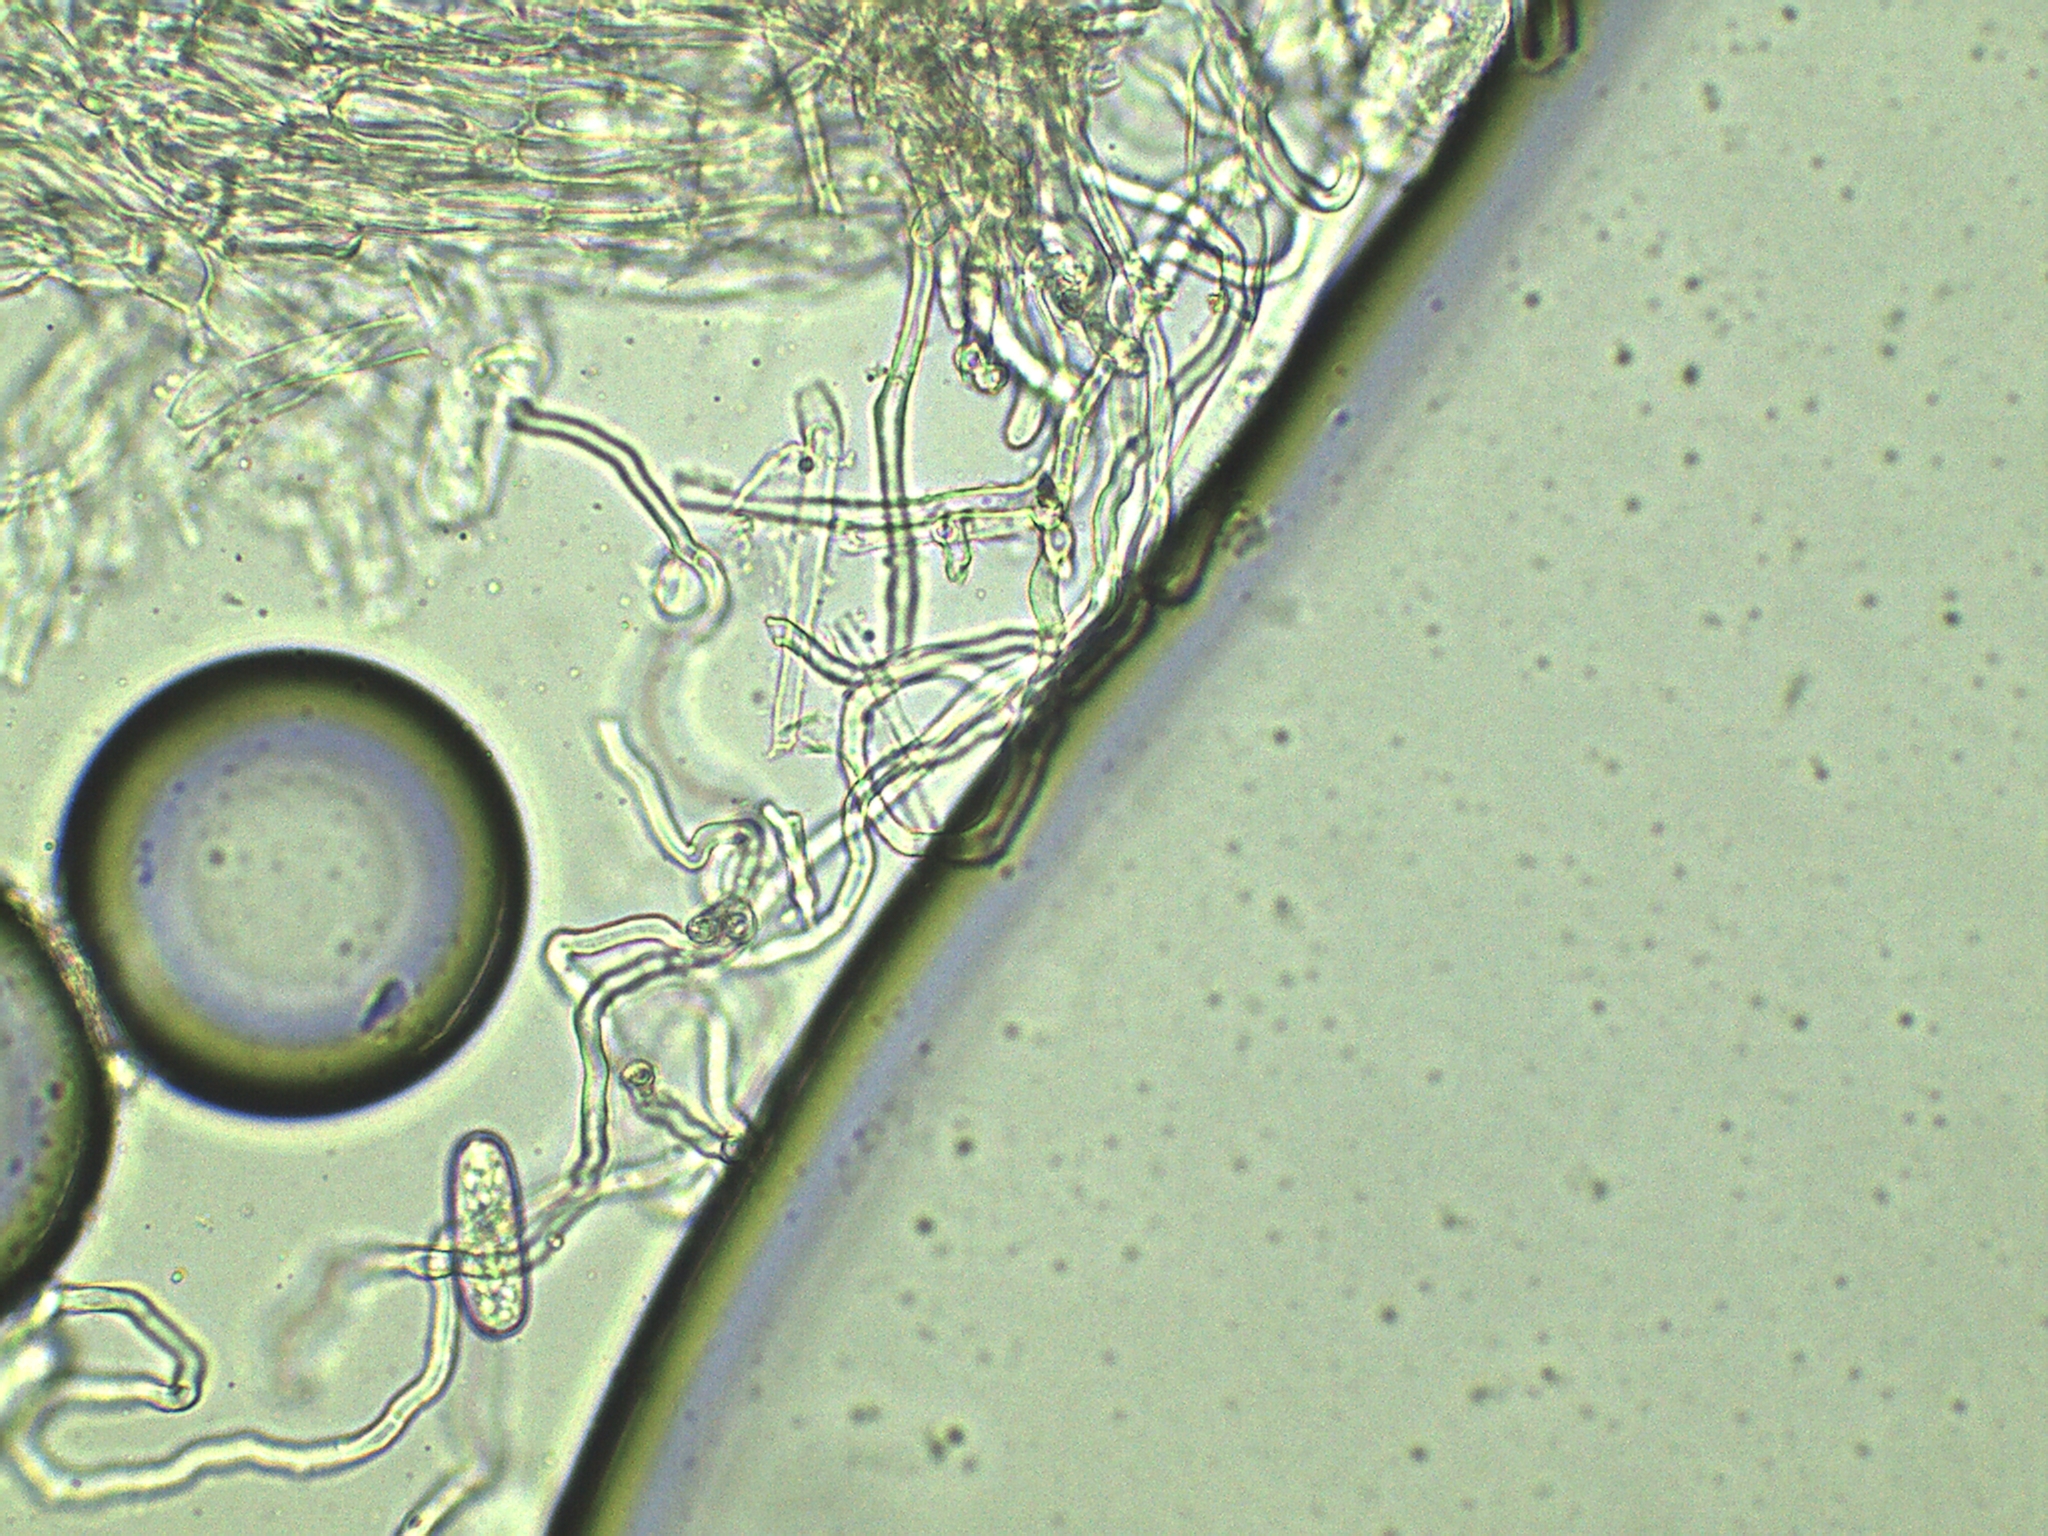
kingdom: Fungi
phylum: Ascomycota
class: Pezizomycetes
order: Pezizales
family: Sarcoscyphaceae
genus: Sarcoscypha
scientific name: Sarcoscypha austriaca
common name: Scarlet elfcup
